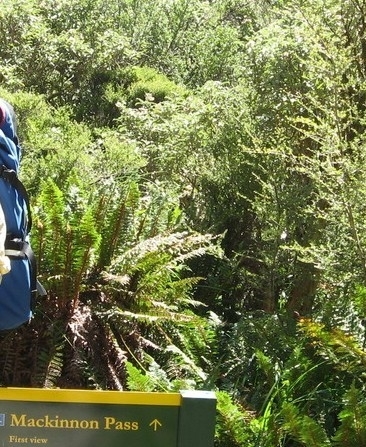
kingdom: Plantae
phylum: Tracheophyta
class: Polypodiopsida
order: Polypodiales
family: Dryopteridaceae
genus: Polystichum
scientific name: Polystichum vestitum
